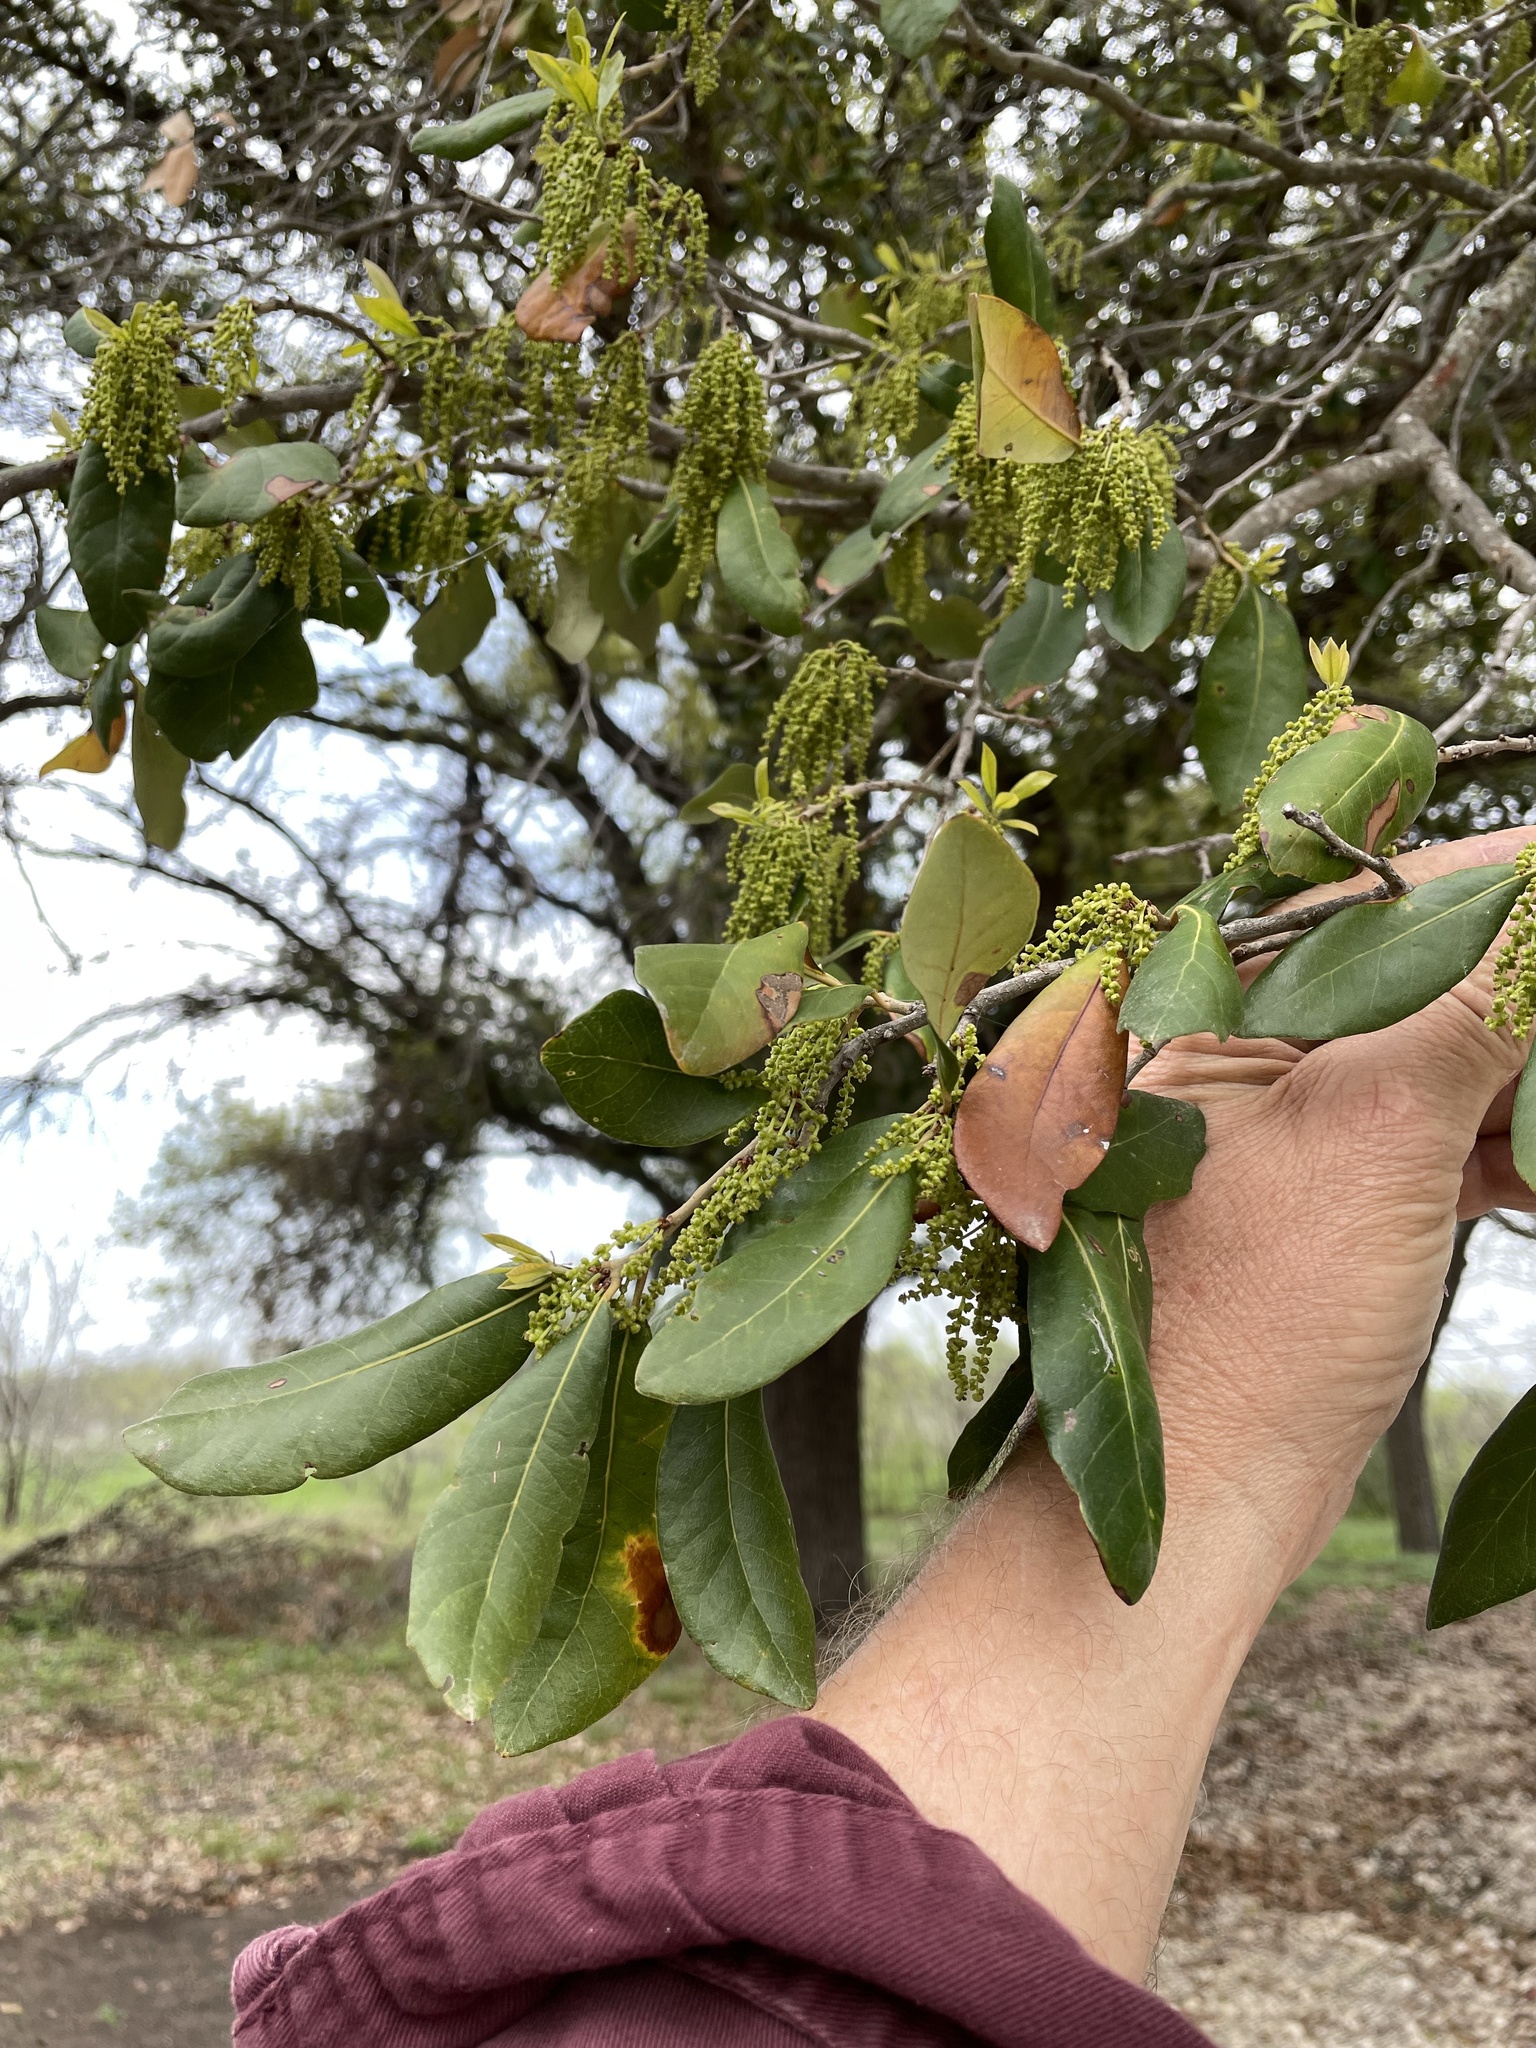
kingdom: Plantae
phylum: Tracheophyta
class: Magnoliopsida
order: Fagales
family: Fagaceae
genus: Quercus
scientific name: Quercus virginiana
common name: Southern live oak
